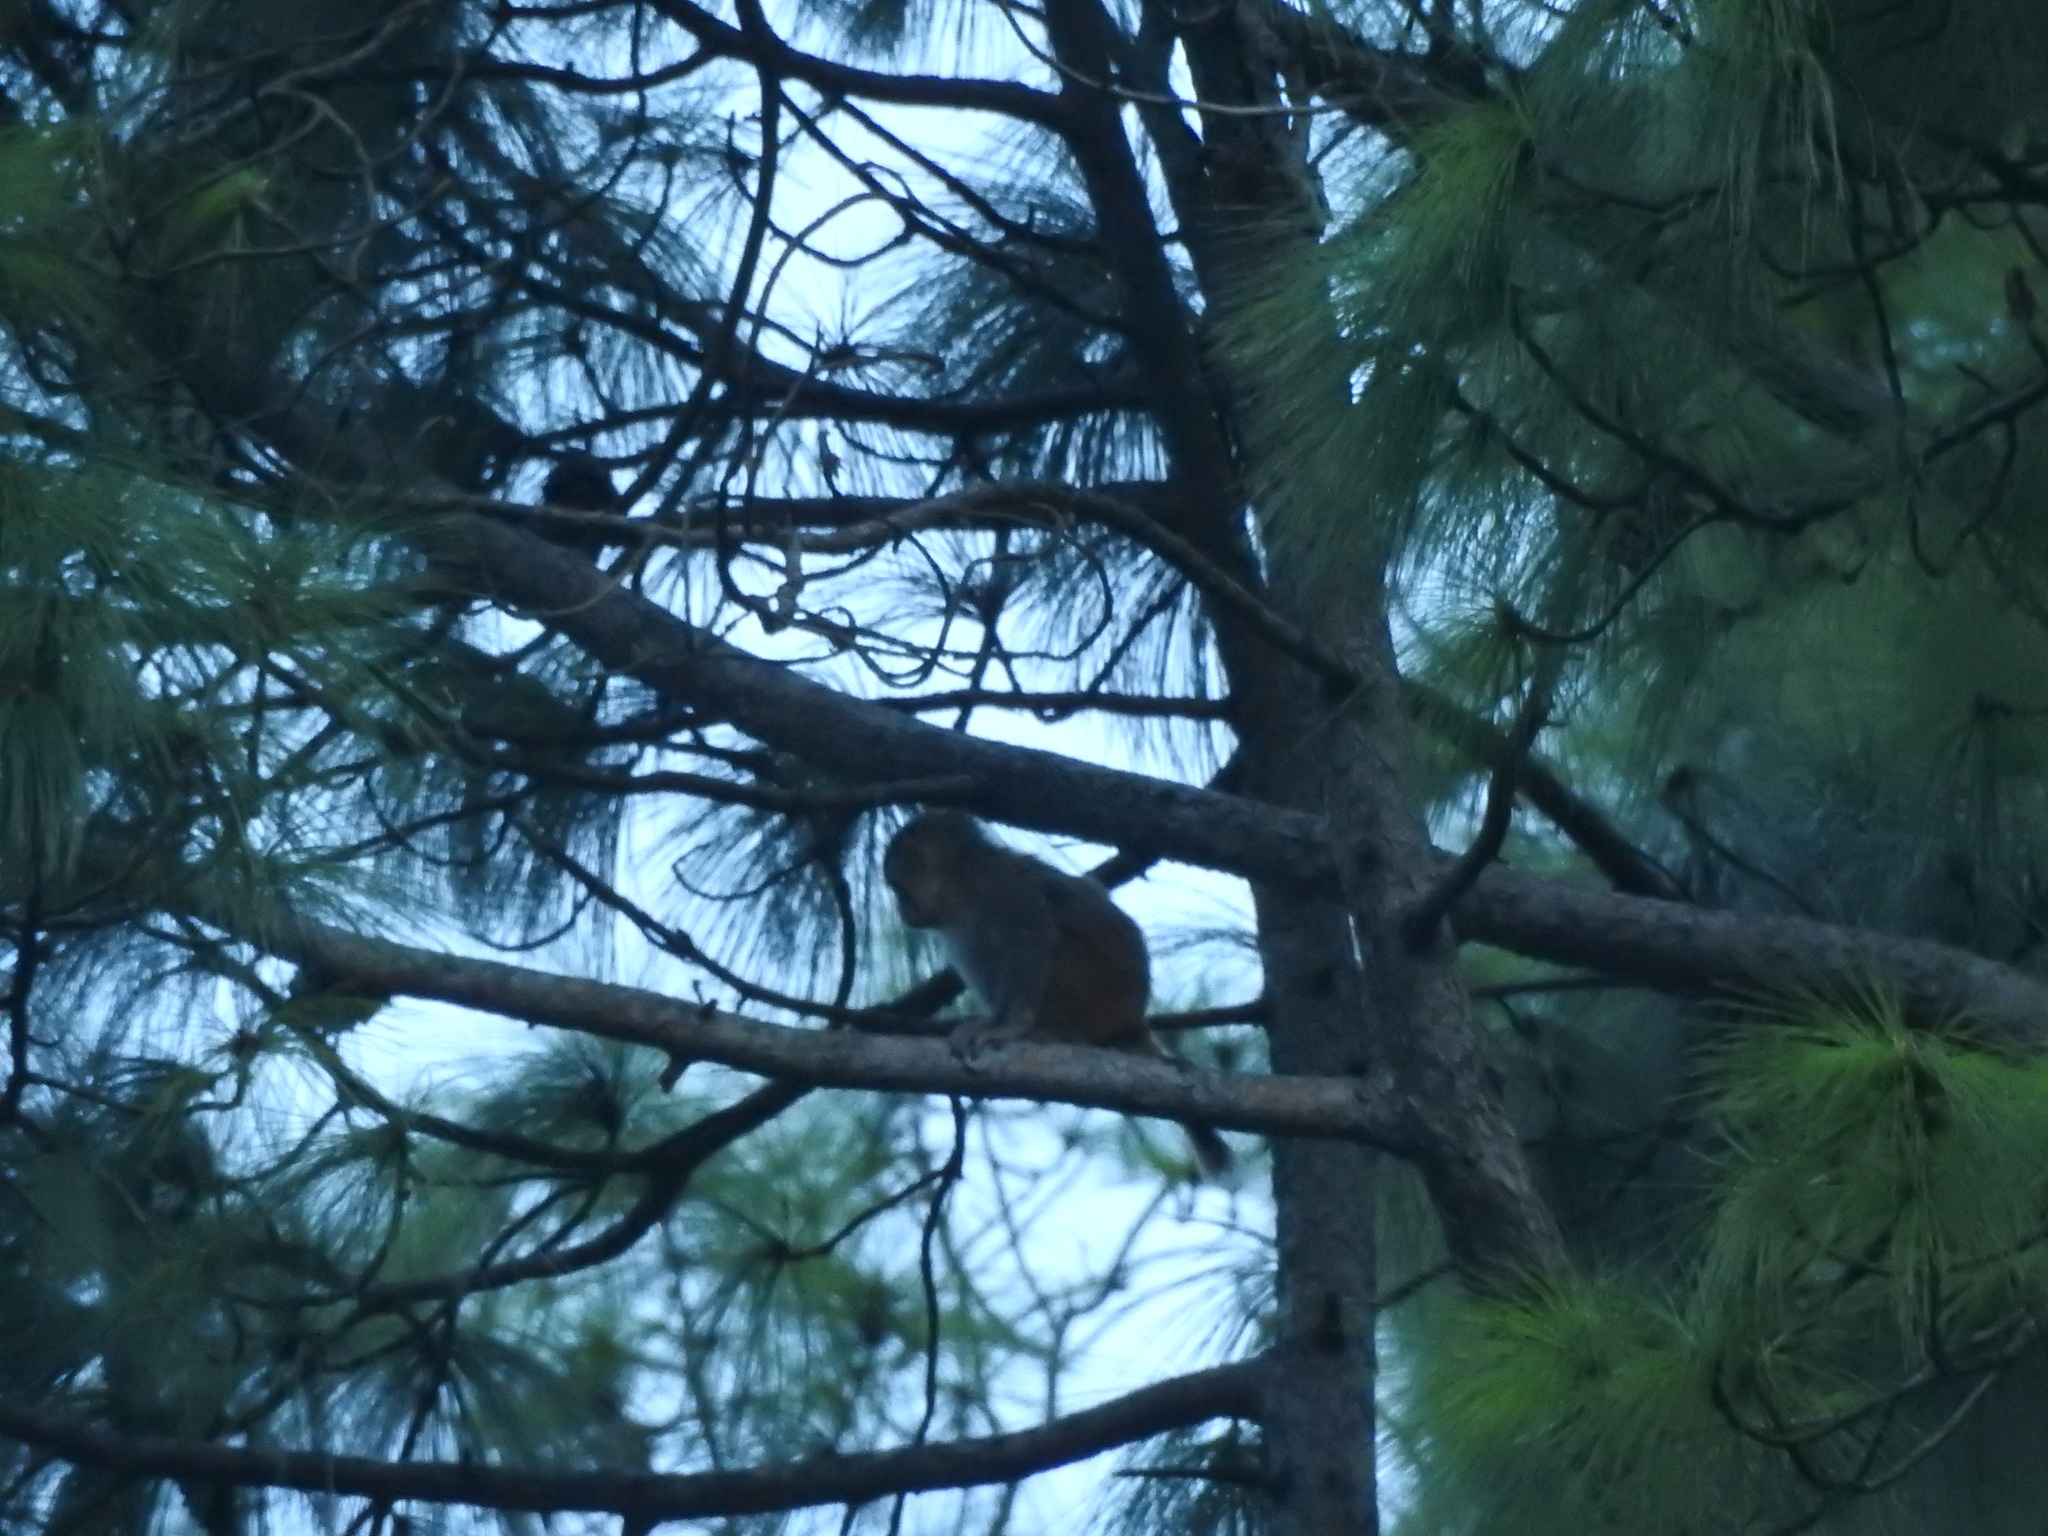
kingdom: Animalia
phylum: Chordata
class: Mammalia
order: Primates
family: Cercopithecidae
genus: Macaca
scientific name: Macaca mulatta
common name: Rhesus monkey
